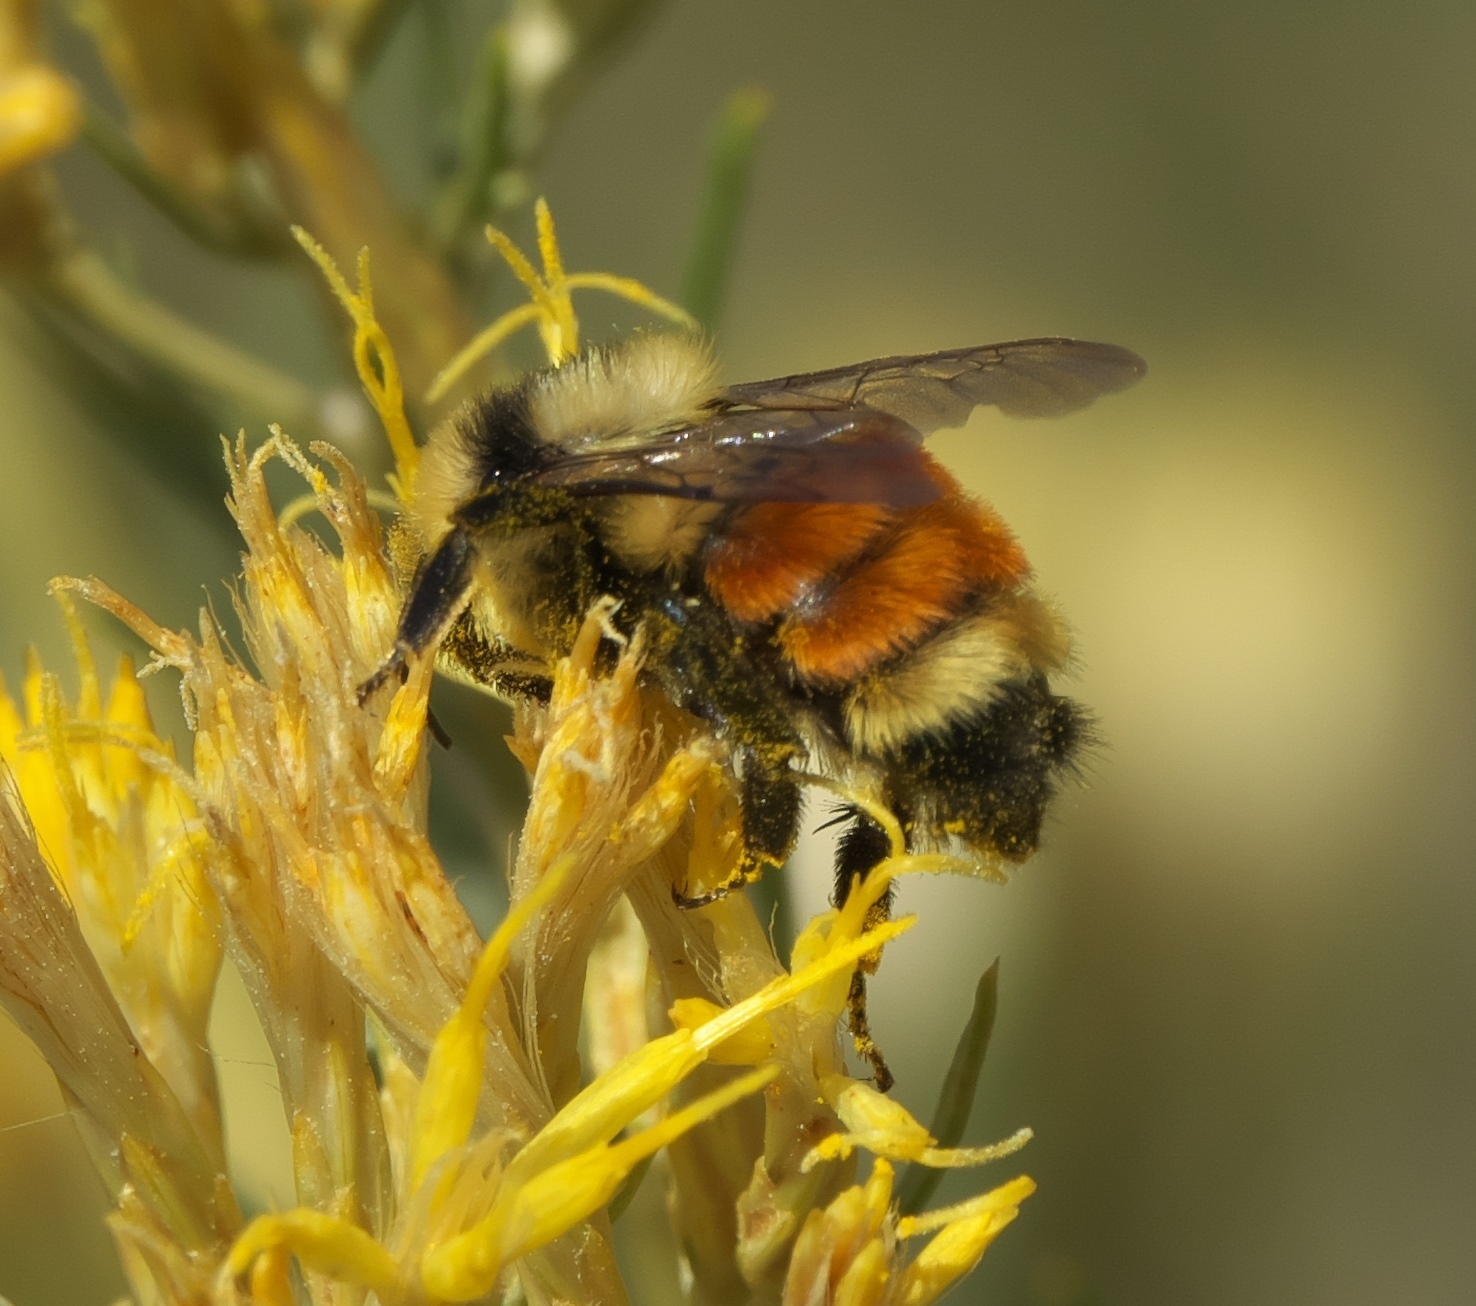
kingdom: Animalia
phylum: Arthropoda
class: Insecta
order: Hymenoptera
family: Apidae
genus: Bombus
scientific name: Bombus huntii
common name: Hunt bumble bee
